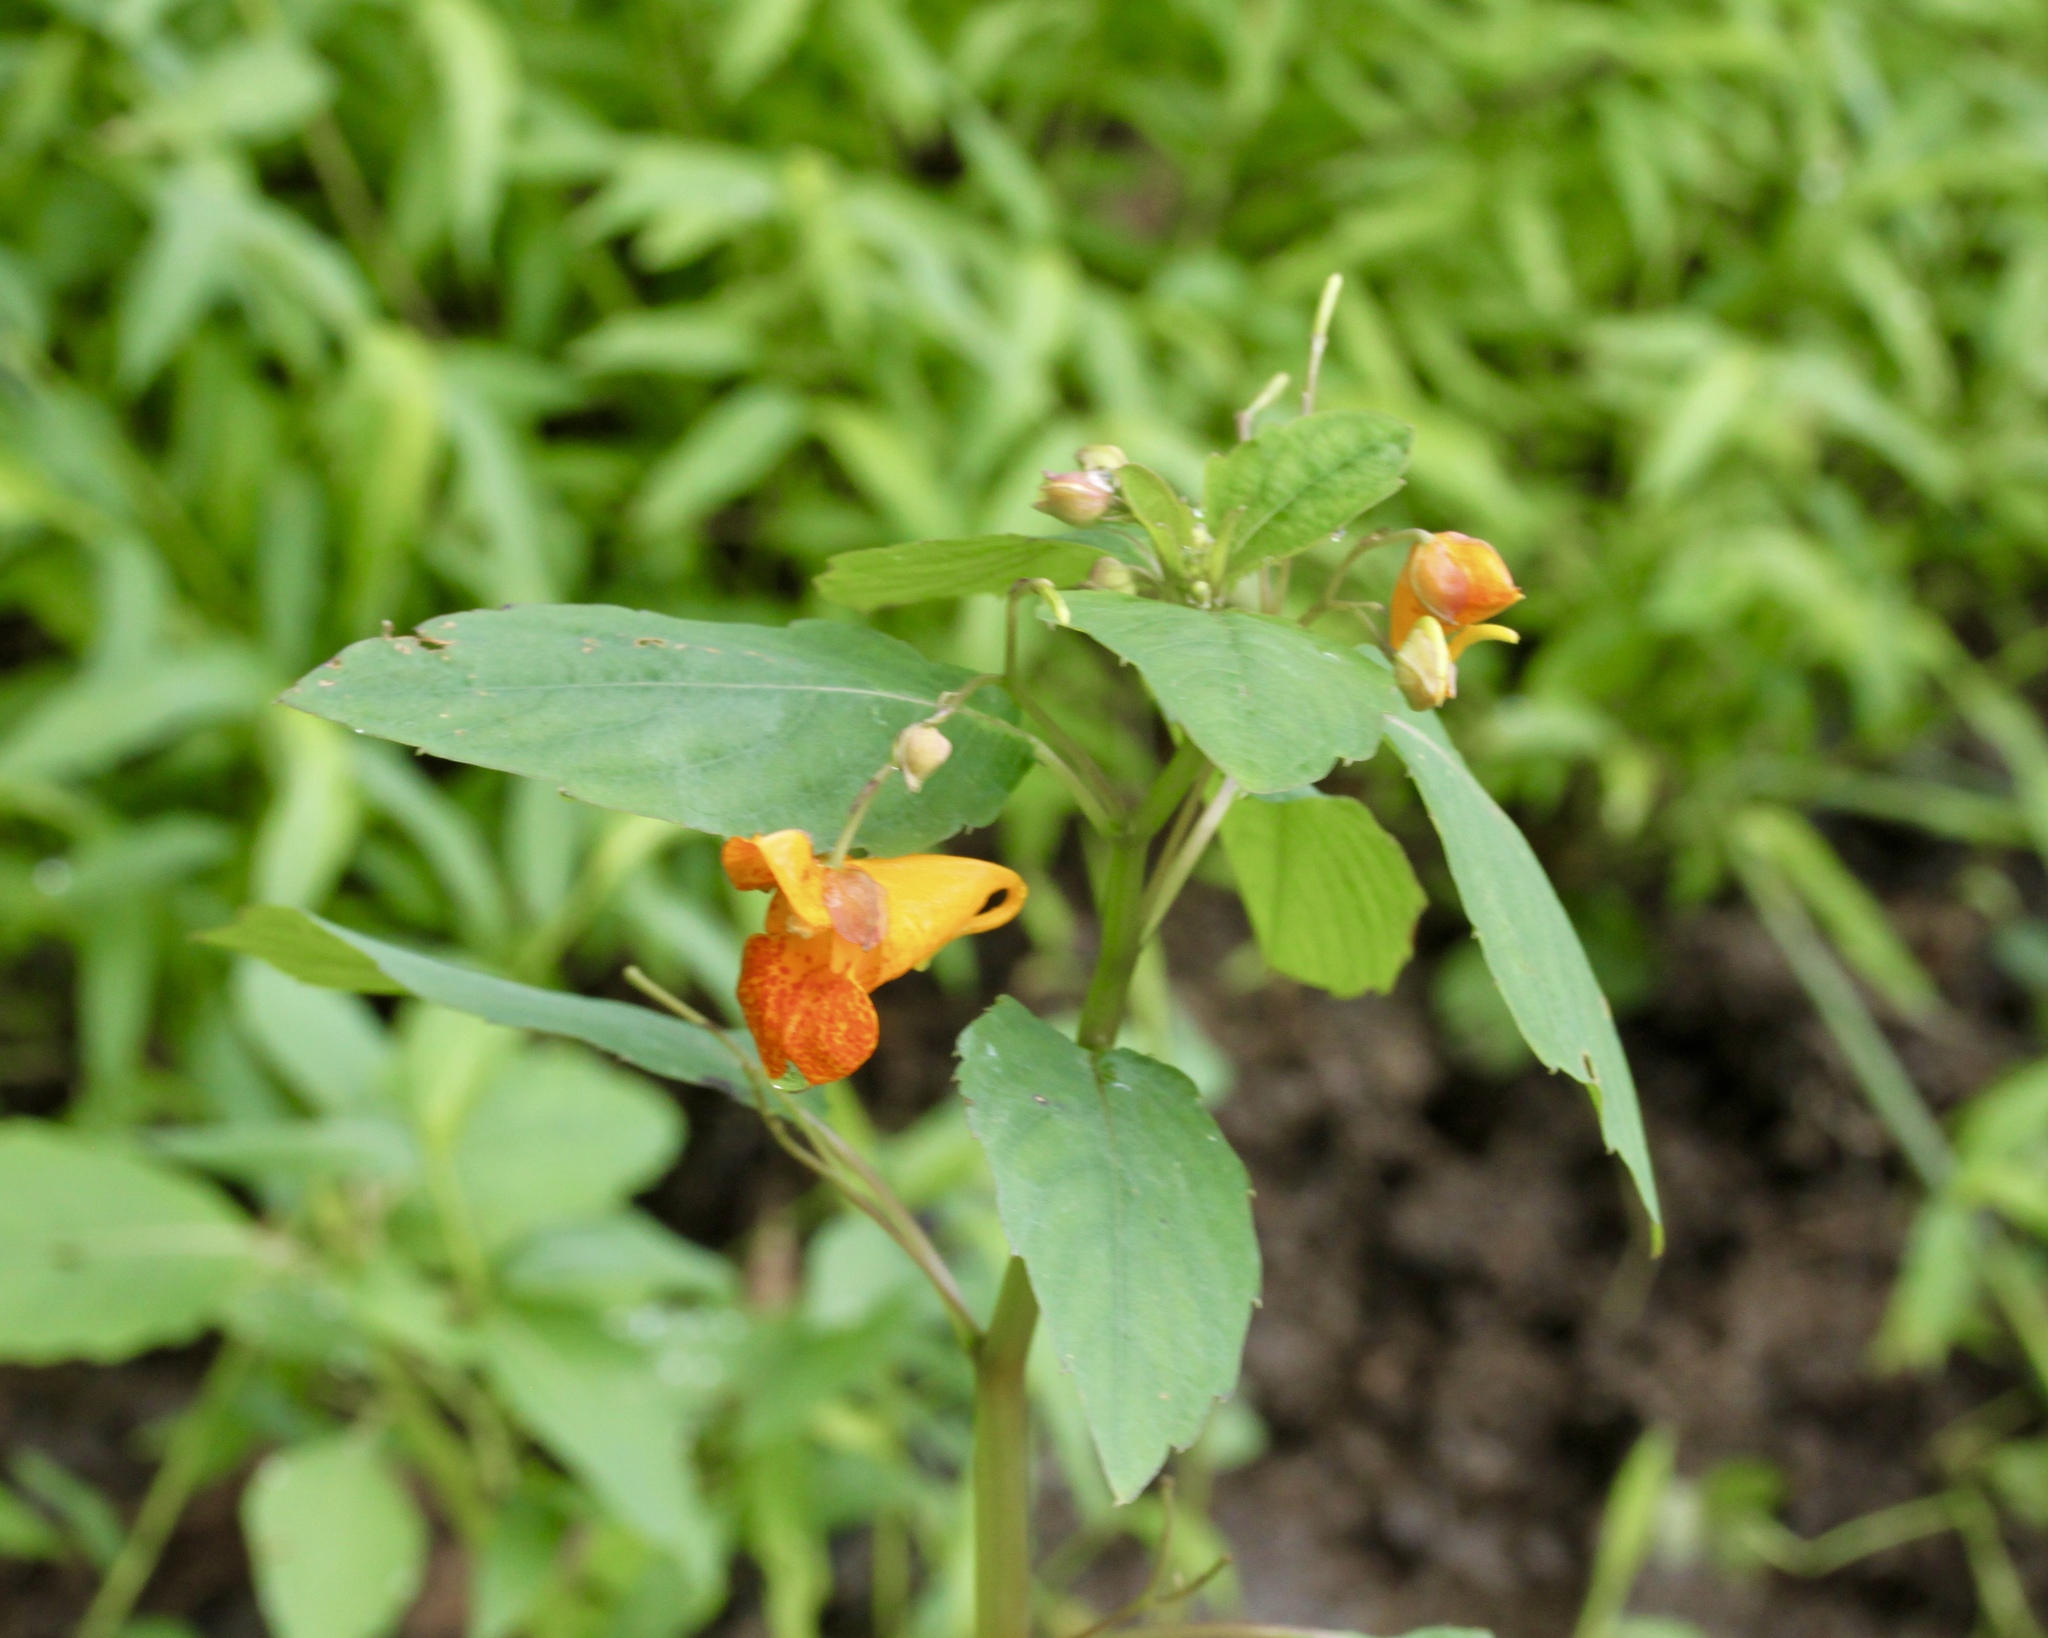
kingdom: Plantae
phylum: Tracheophyta
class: Magnoliopsida
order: Ericales
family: Balsaminaceae
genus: Impatiens
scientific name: Impatiens capensis
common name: Orange balsam
